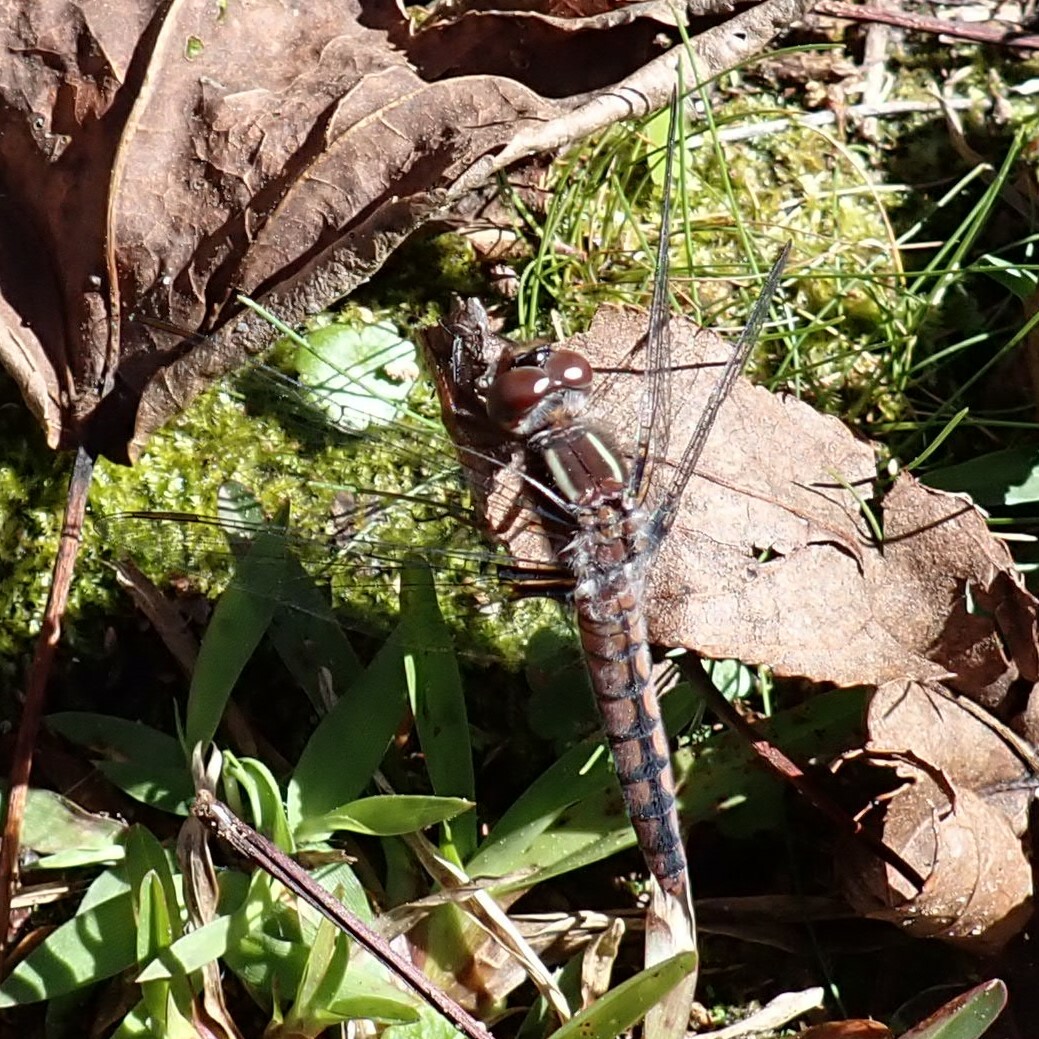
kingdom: Animalia
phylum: Arthropoda
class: Insecta
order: Odonata
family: Libellulidae
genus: Ladona
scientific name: Ladona deplanata
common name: Blue corporal
